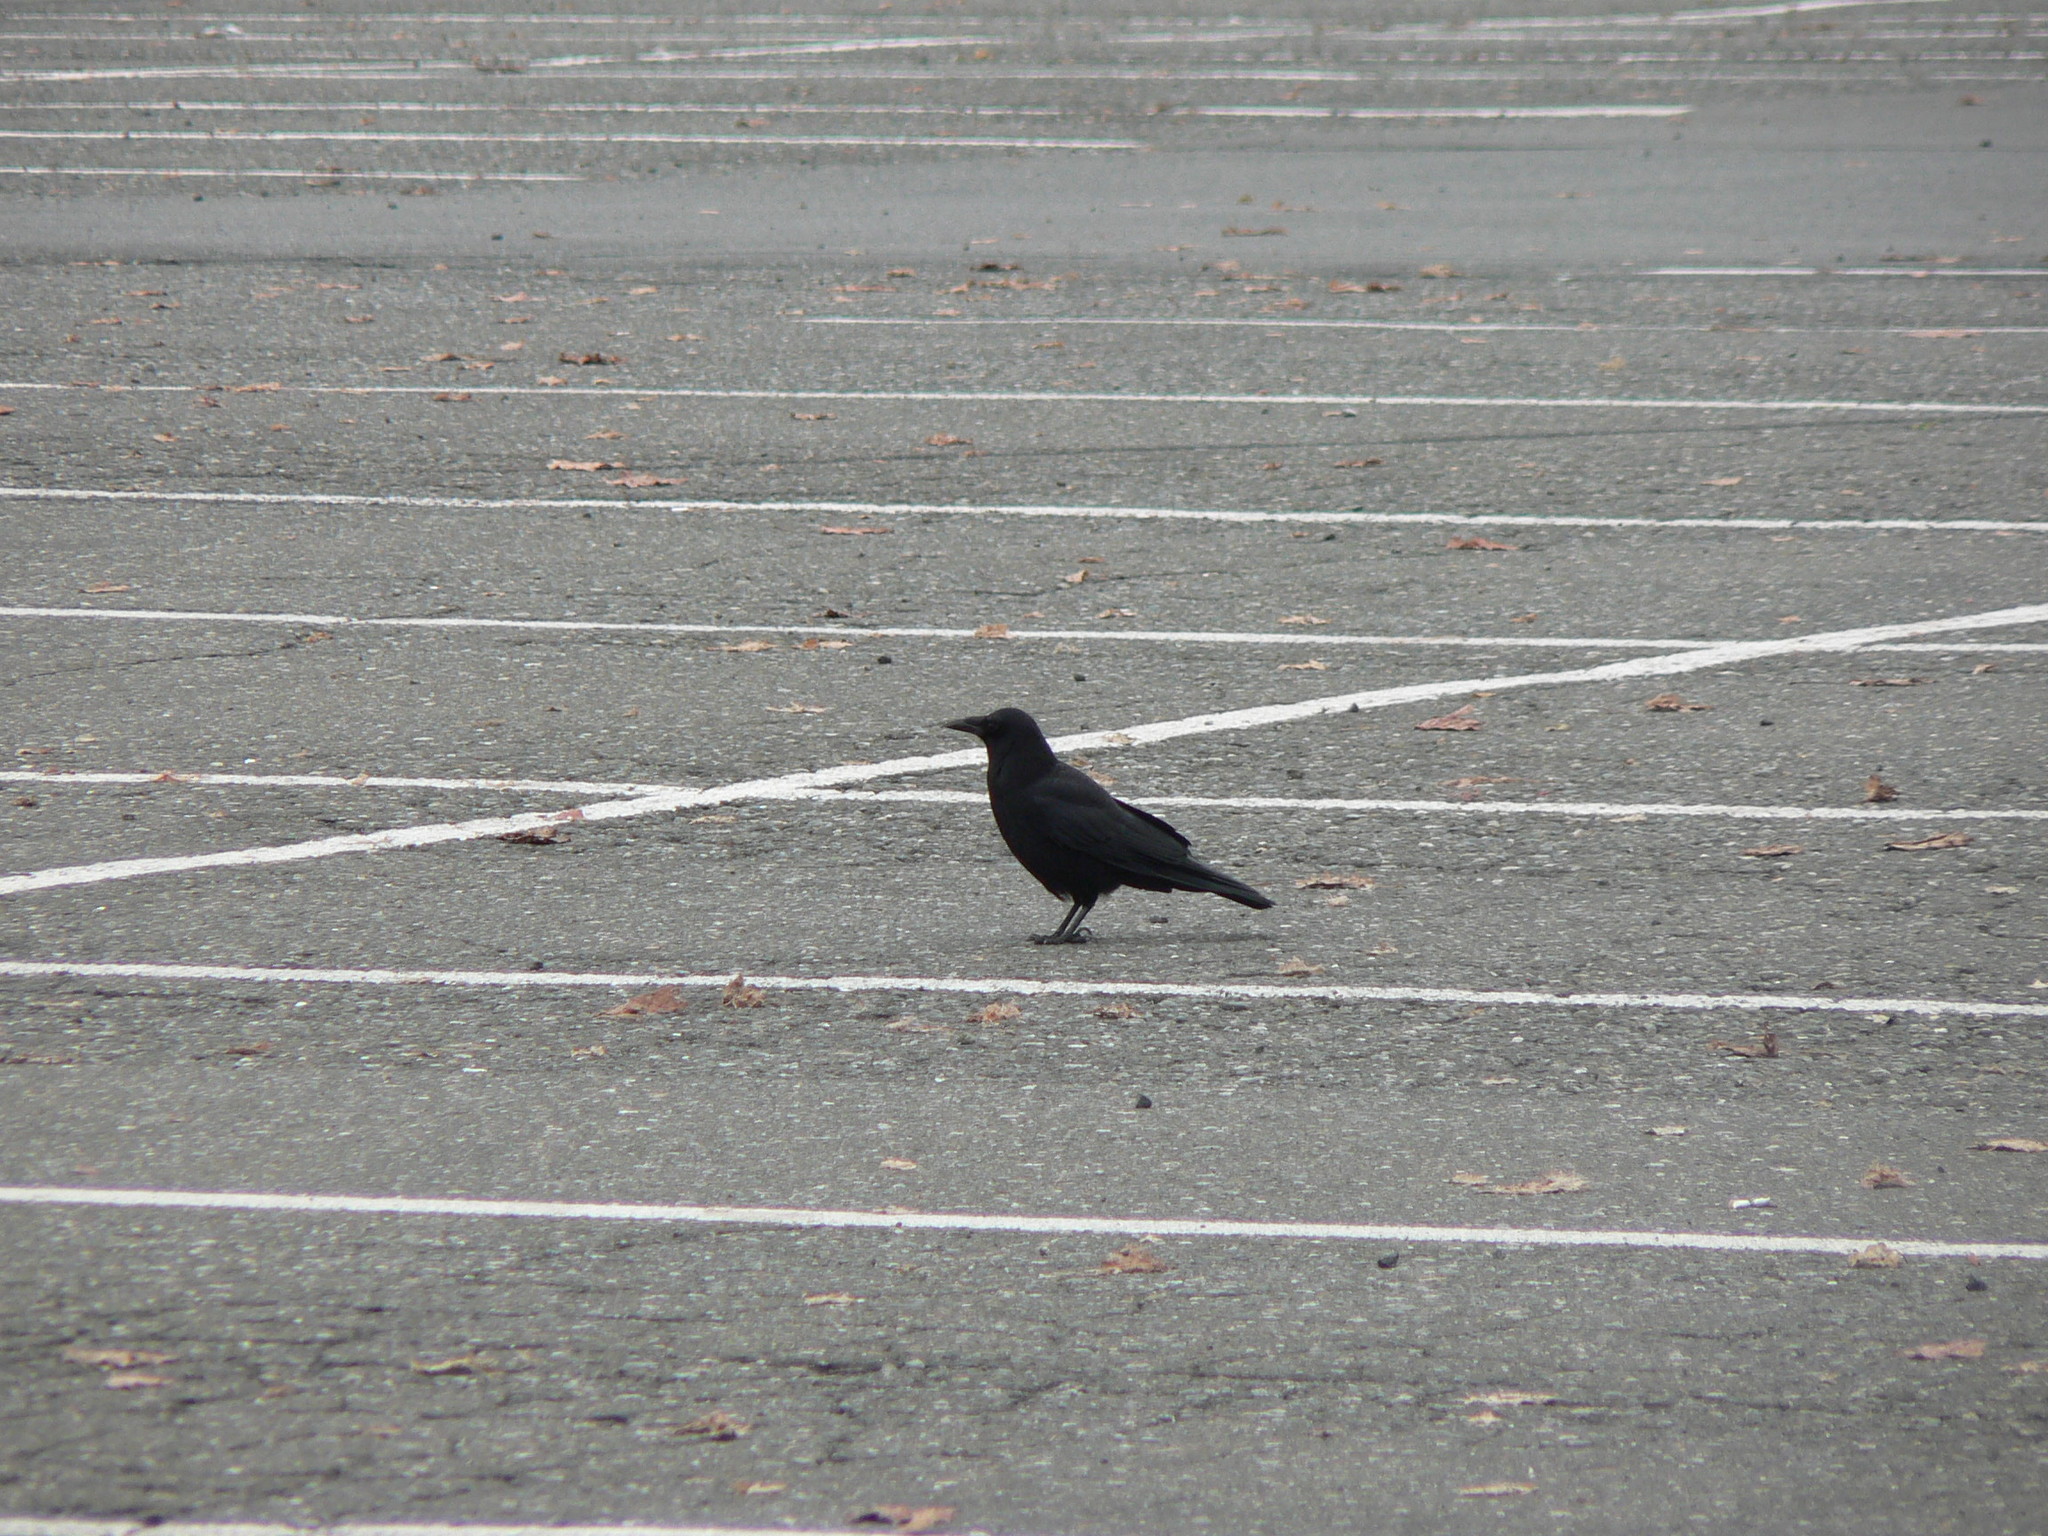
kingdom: Animalia
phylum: Chordata
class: Aves
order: Passeriformes
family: Corvidae
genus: Corvus
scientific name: Corvus brachyrhynchos
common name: American crow
